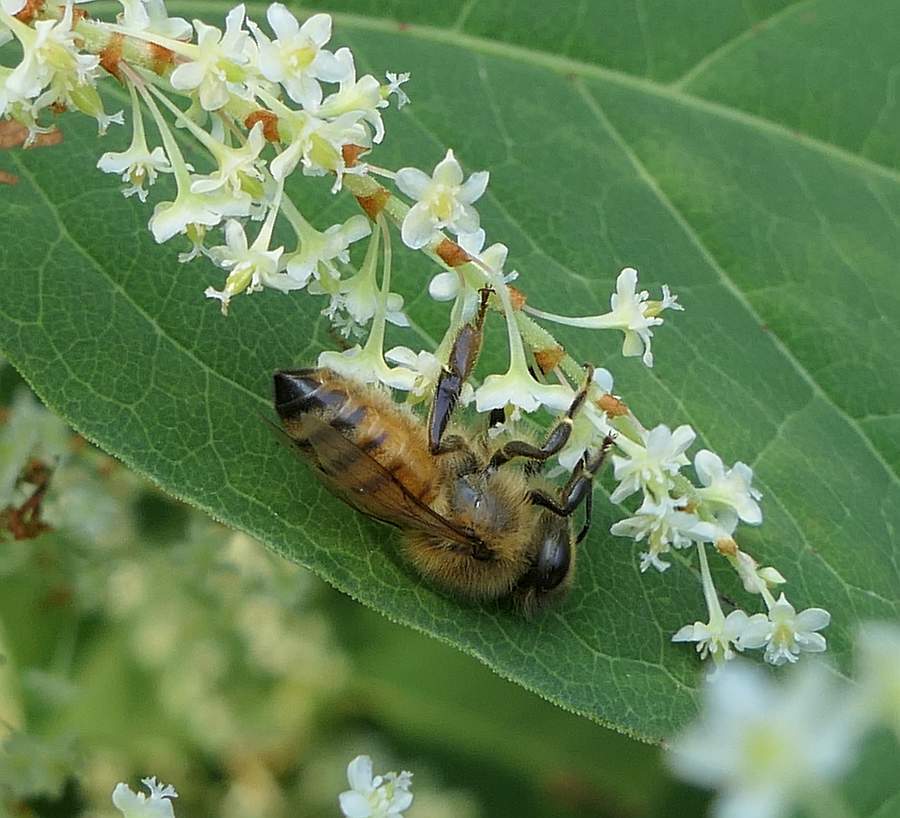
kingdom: Animalia
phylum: Arthropoda
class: Insecta
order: Hymenoptera
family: Apidae
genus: Apis
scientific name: Apis mellifera
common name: Honey bee
